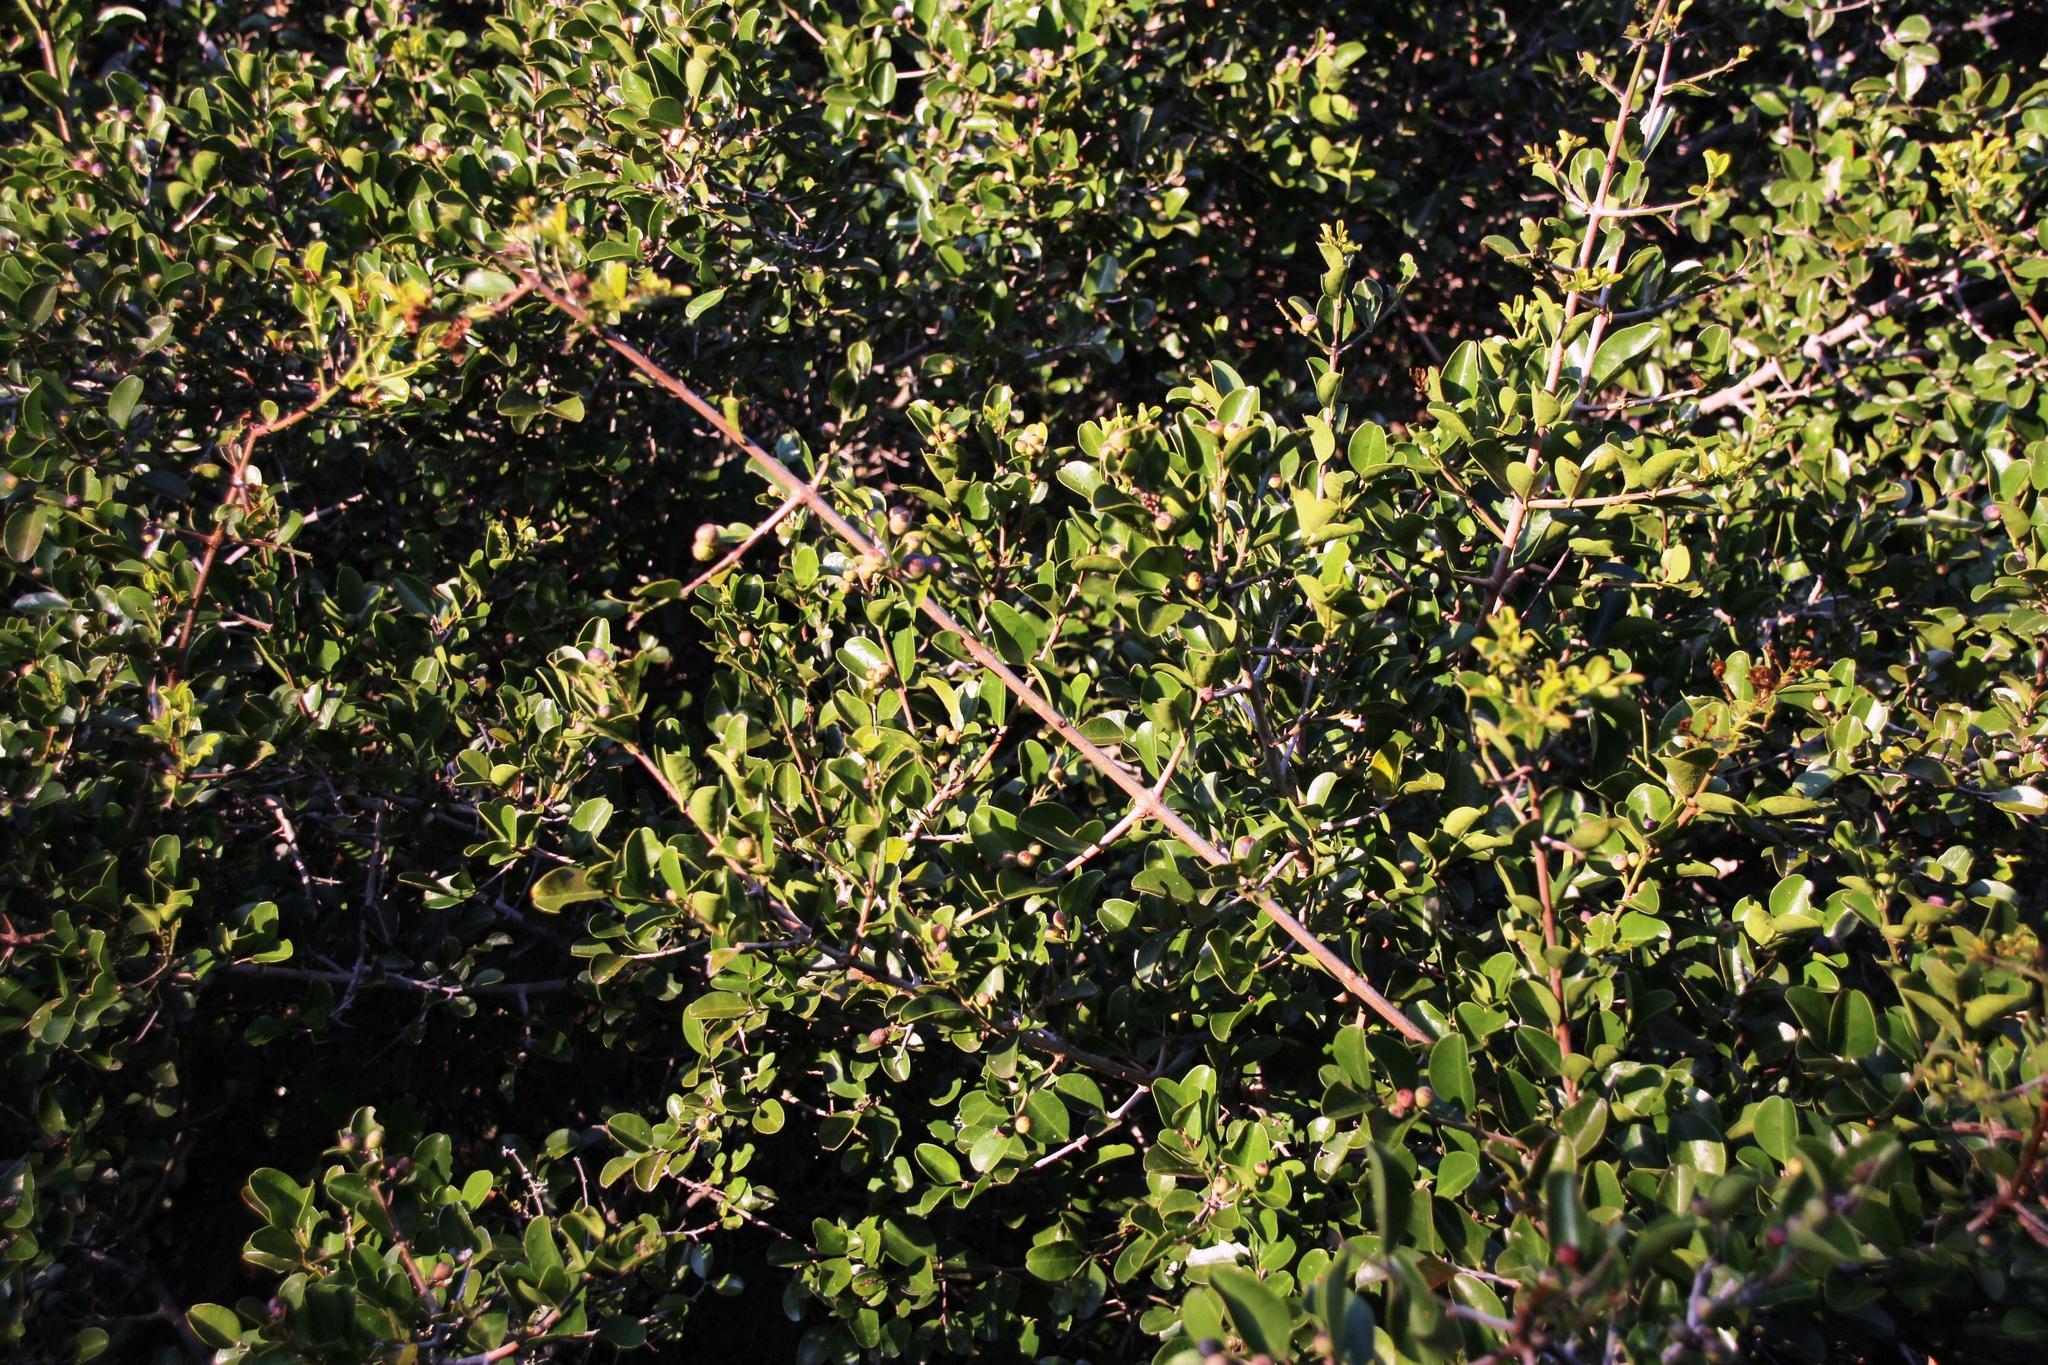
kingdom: Plantae
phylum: Tracheophyta
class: Magnoliopsida
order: Rosales
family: Rhamnaceae
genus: Scutia
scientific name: Scutia myrtina
